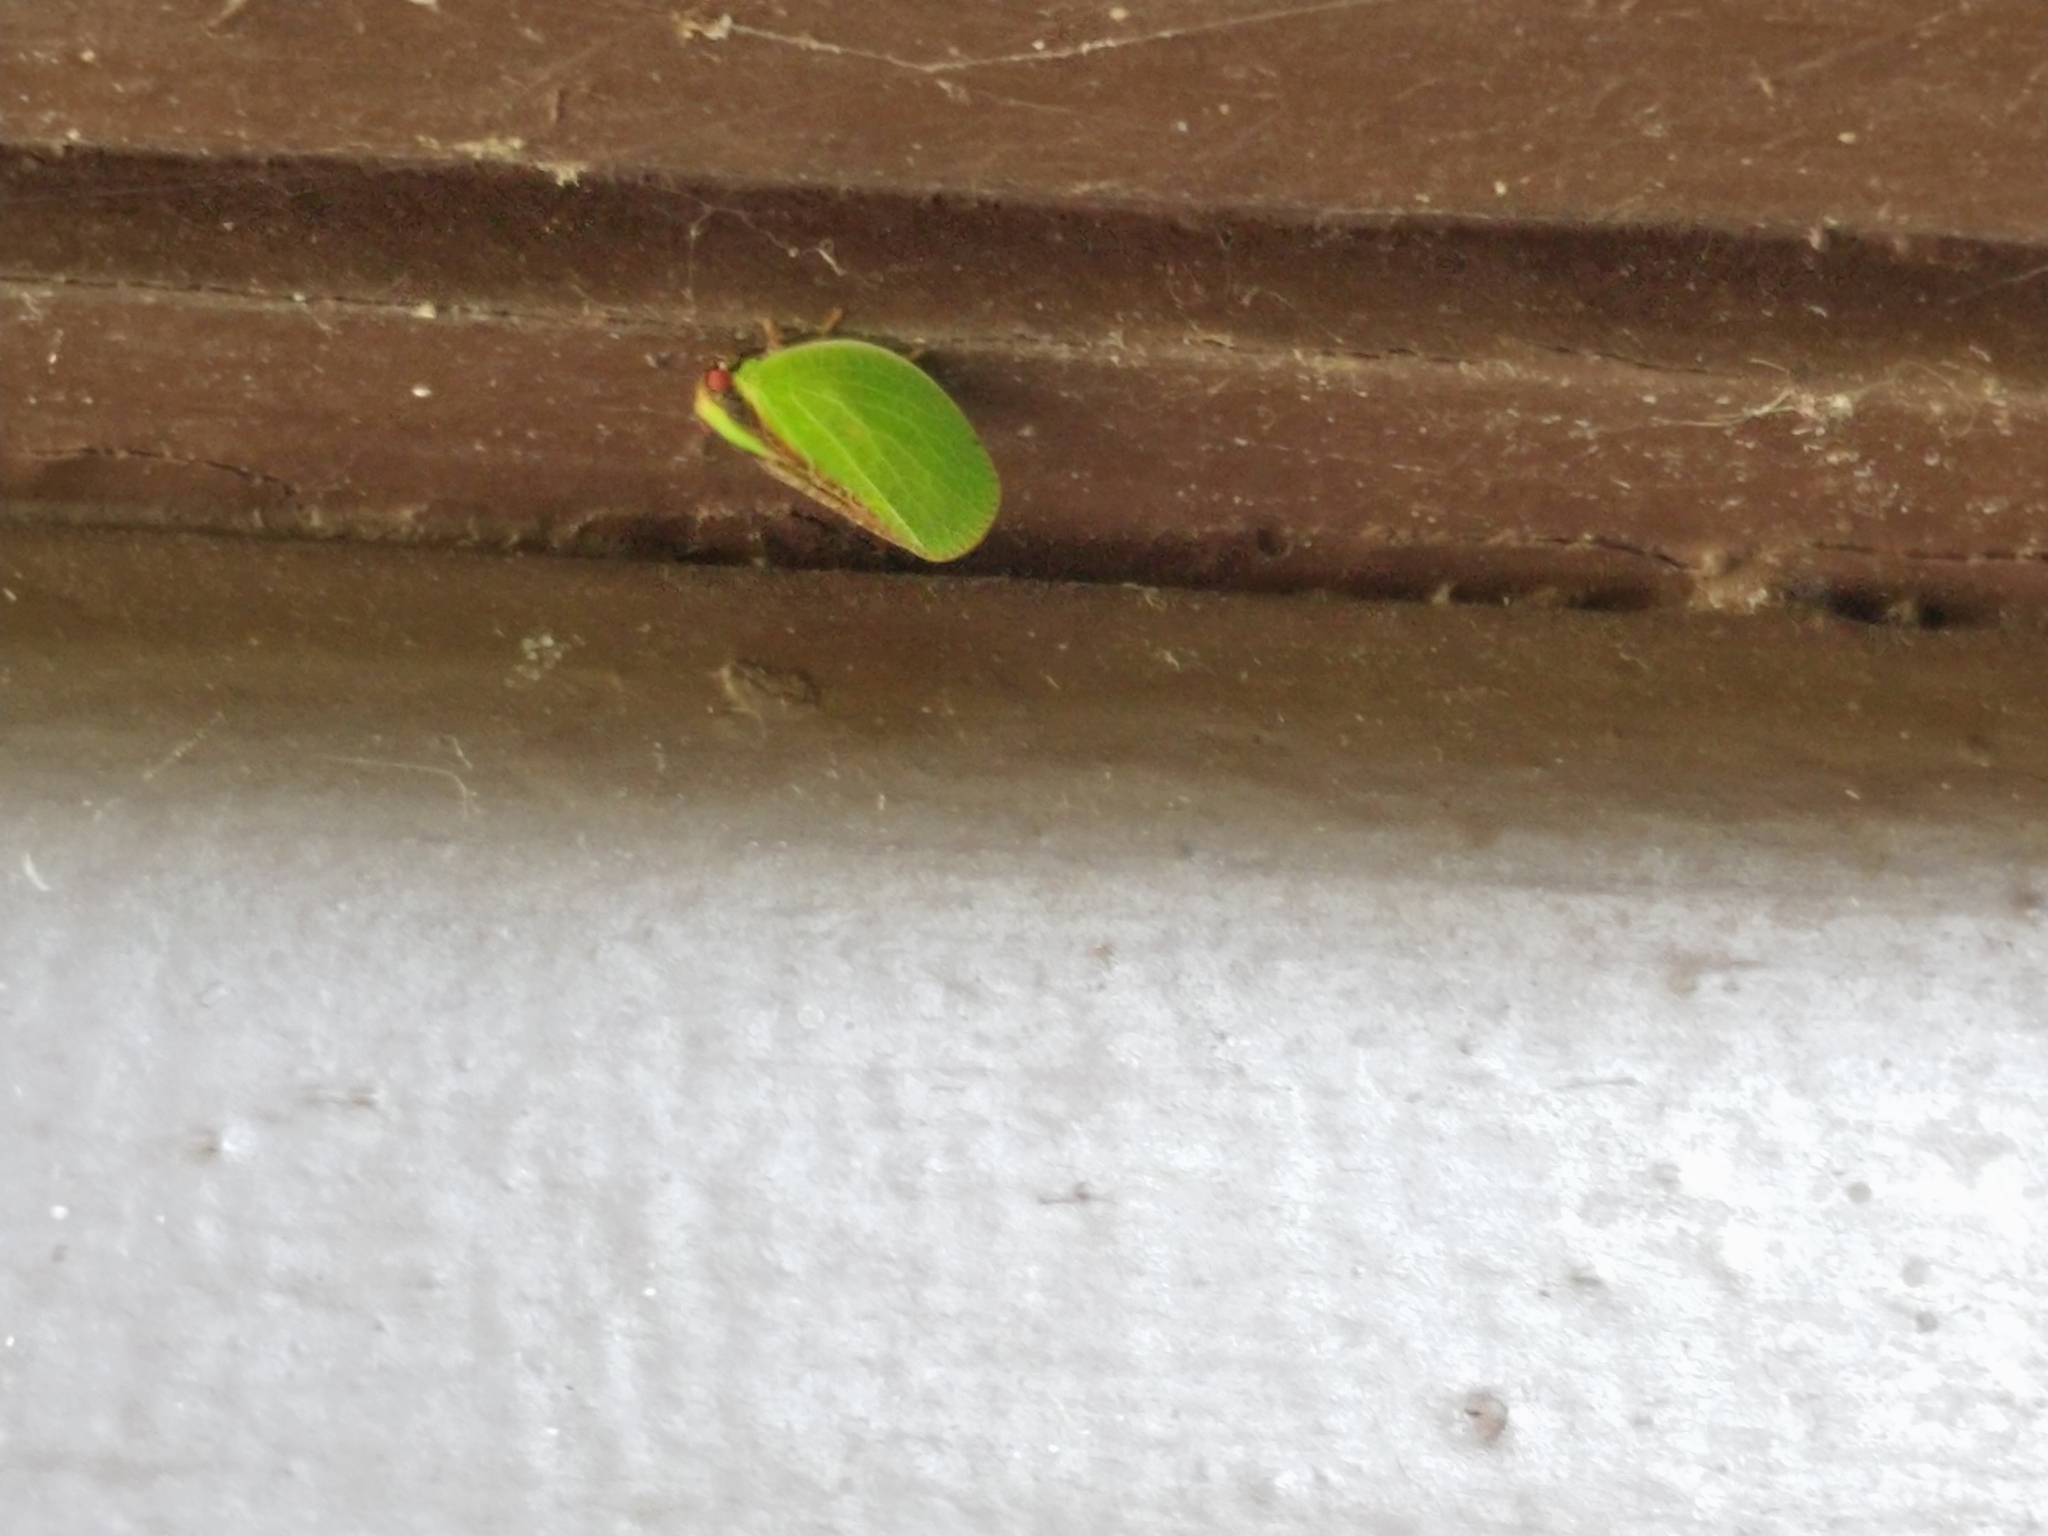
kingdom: Animalia
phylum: Arthropoda
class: Insecta
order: Hemiptera
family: Acanaloniidae
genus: Acanalonia
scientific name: Acanalonia bivittata
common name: Two-striped planthopper
